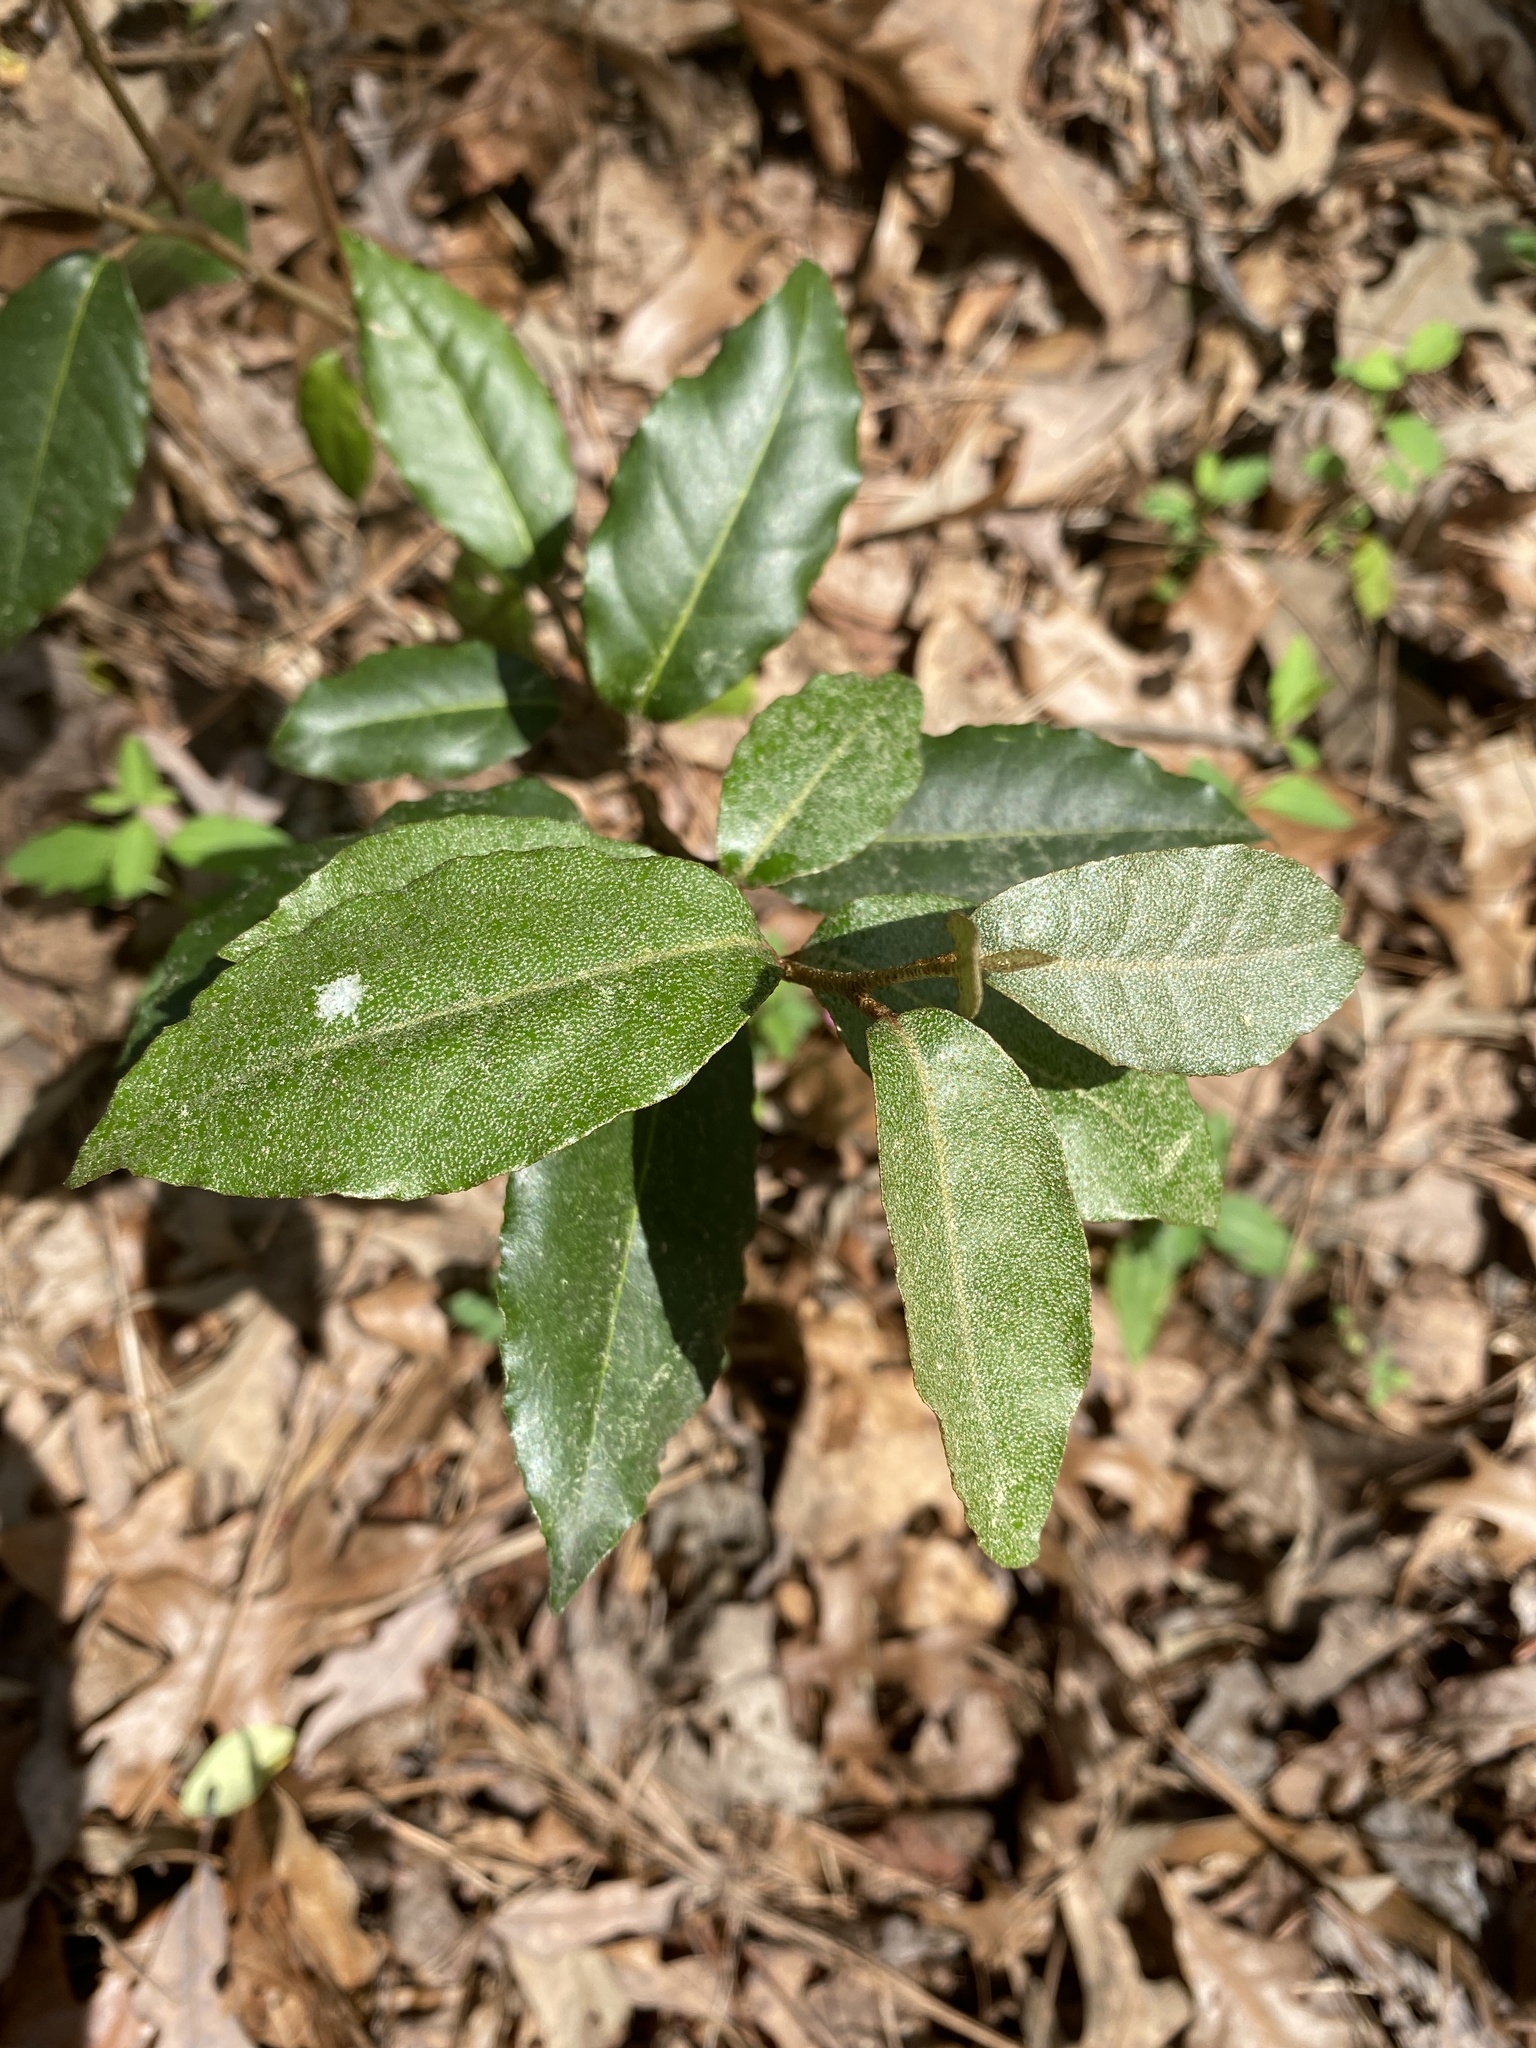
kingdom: Plantae
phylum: Tracheophyta
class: Magnoliopsida
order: Rosales
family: Elaeagnaceae
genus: Elaeagnus
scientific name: Elaeagnus pungens
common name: Spiny oleaster
